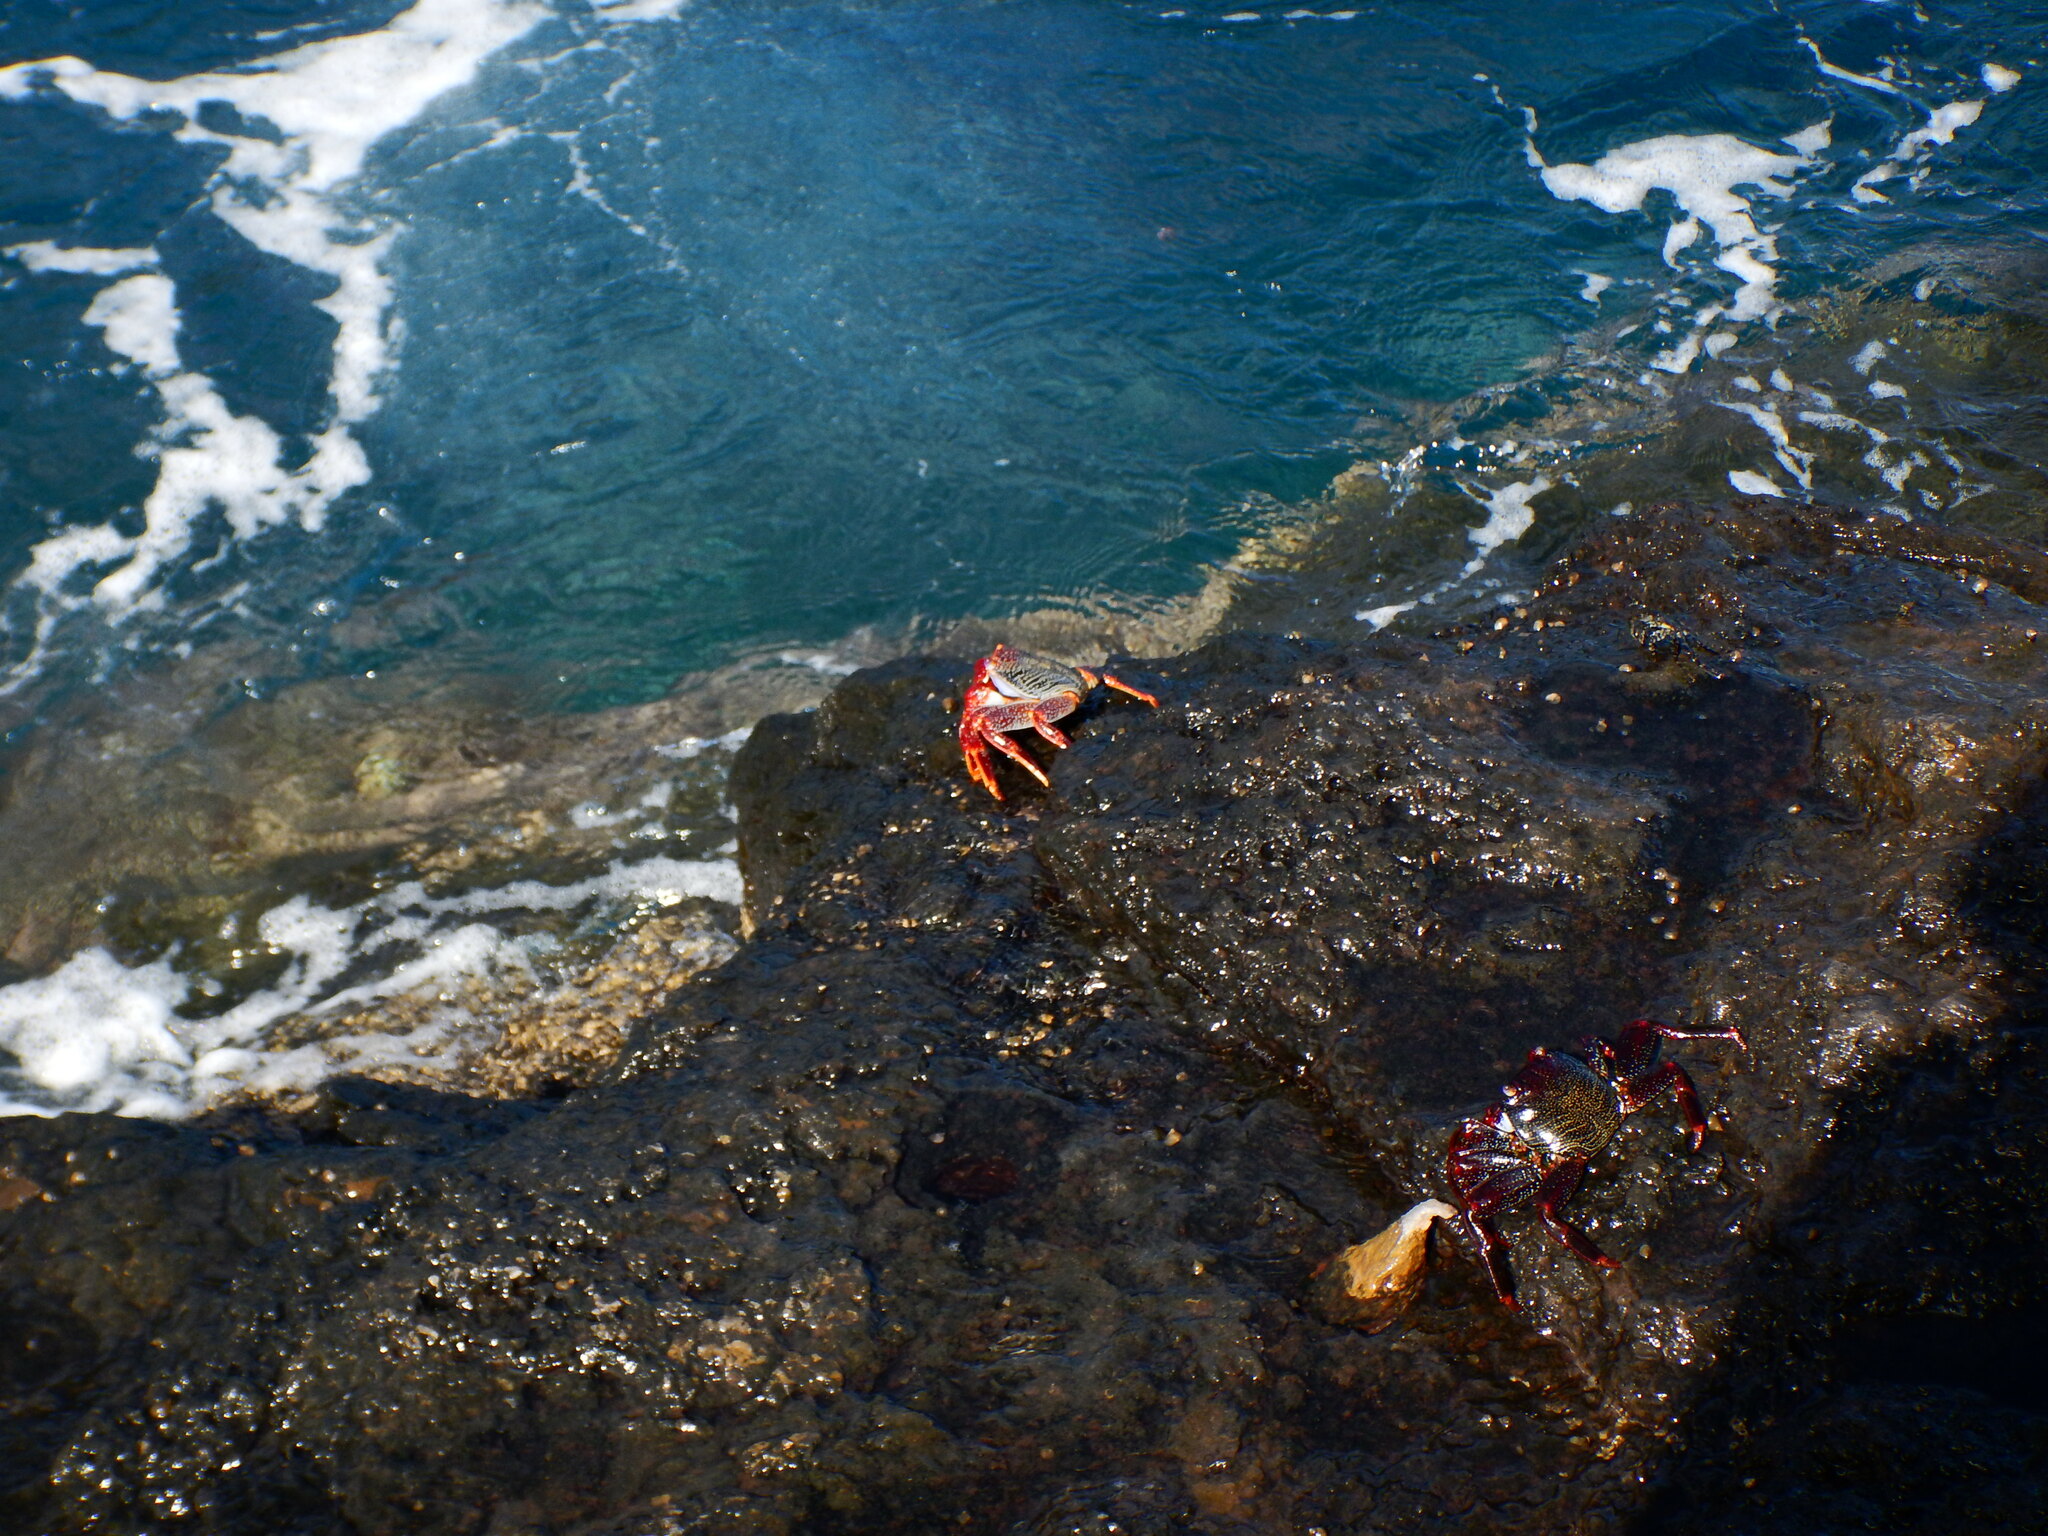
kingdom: Animalia
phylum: Arthropoda
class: Malacostraca
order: Decapoda
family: Grapsidae
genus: Grapsus
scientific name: Grapsus adscensionis
